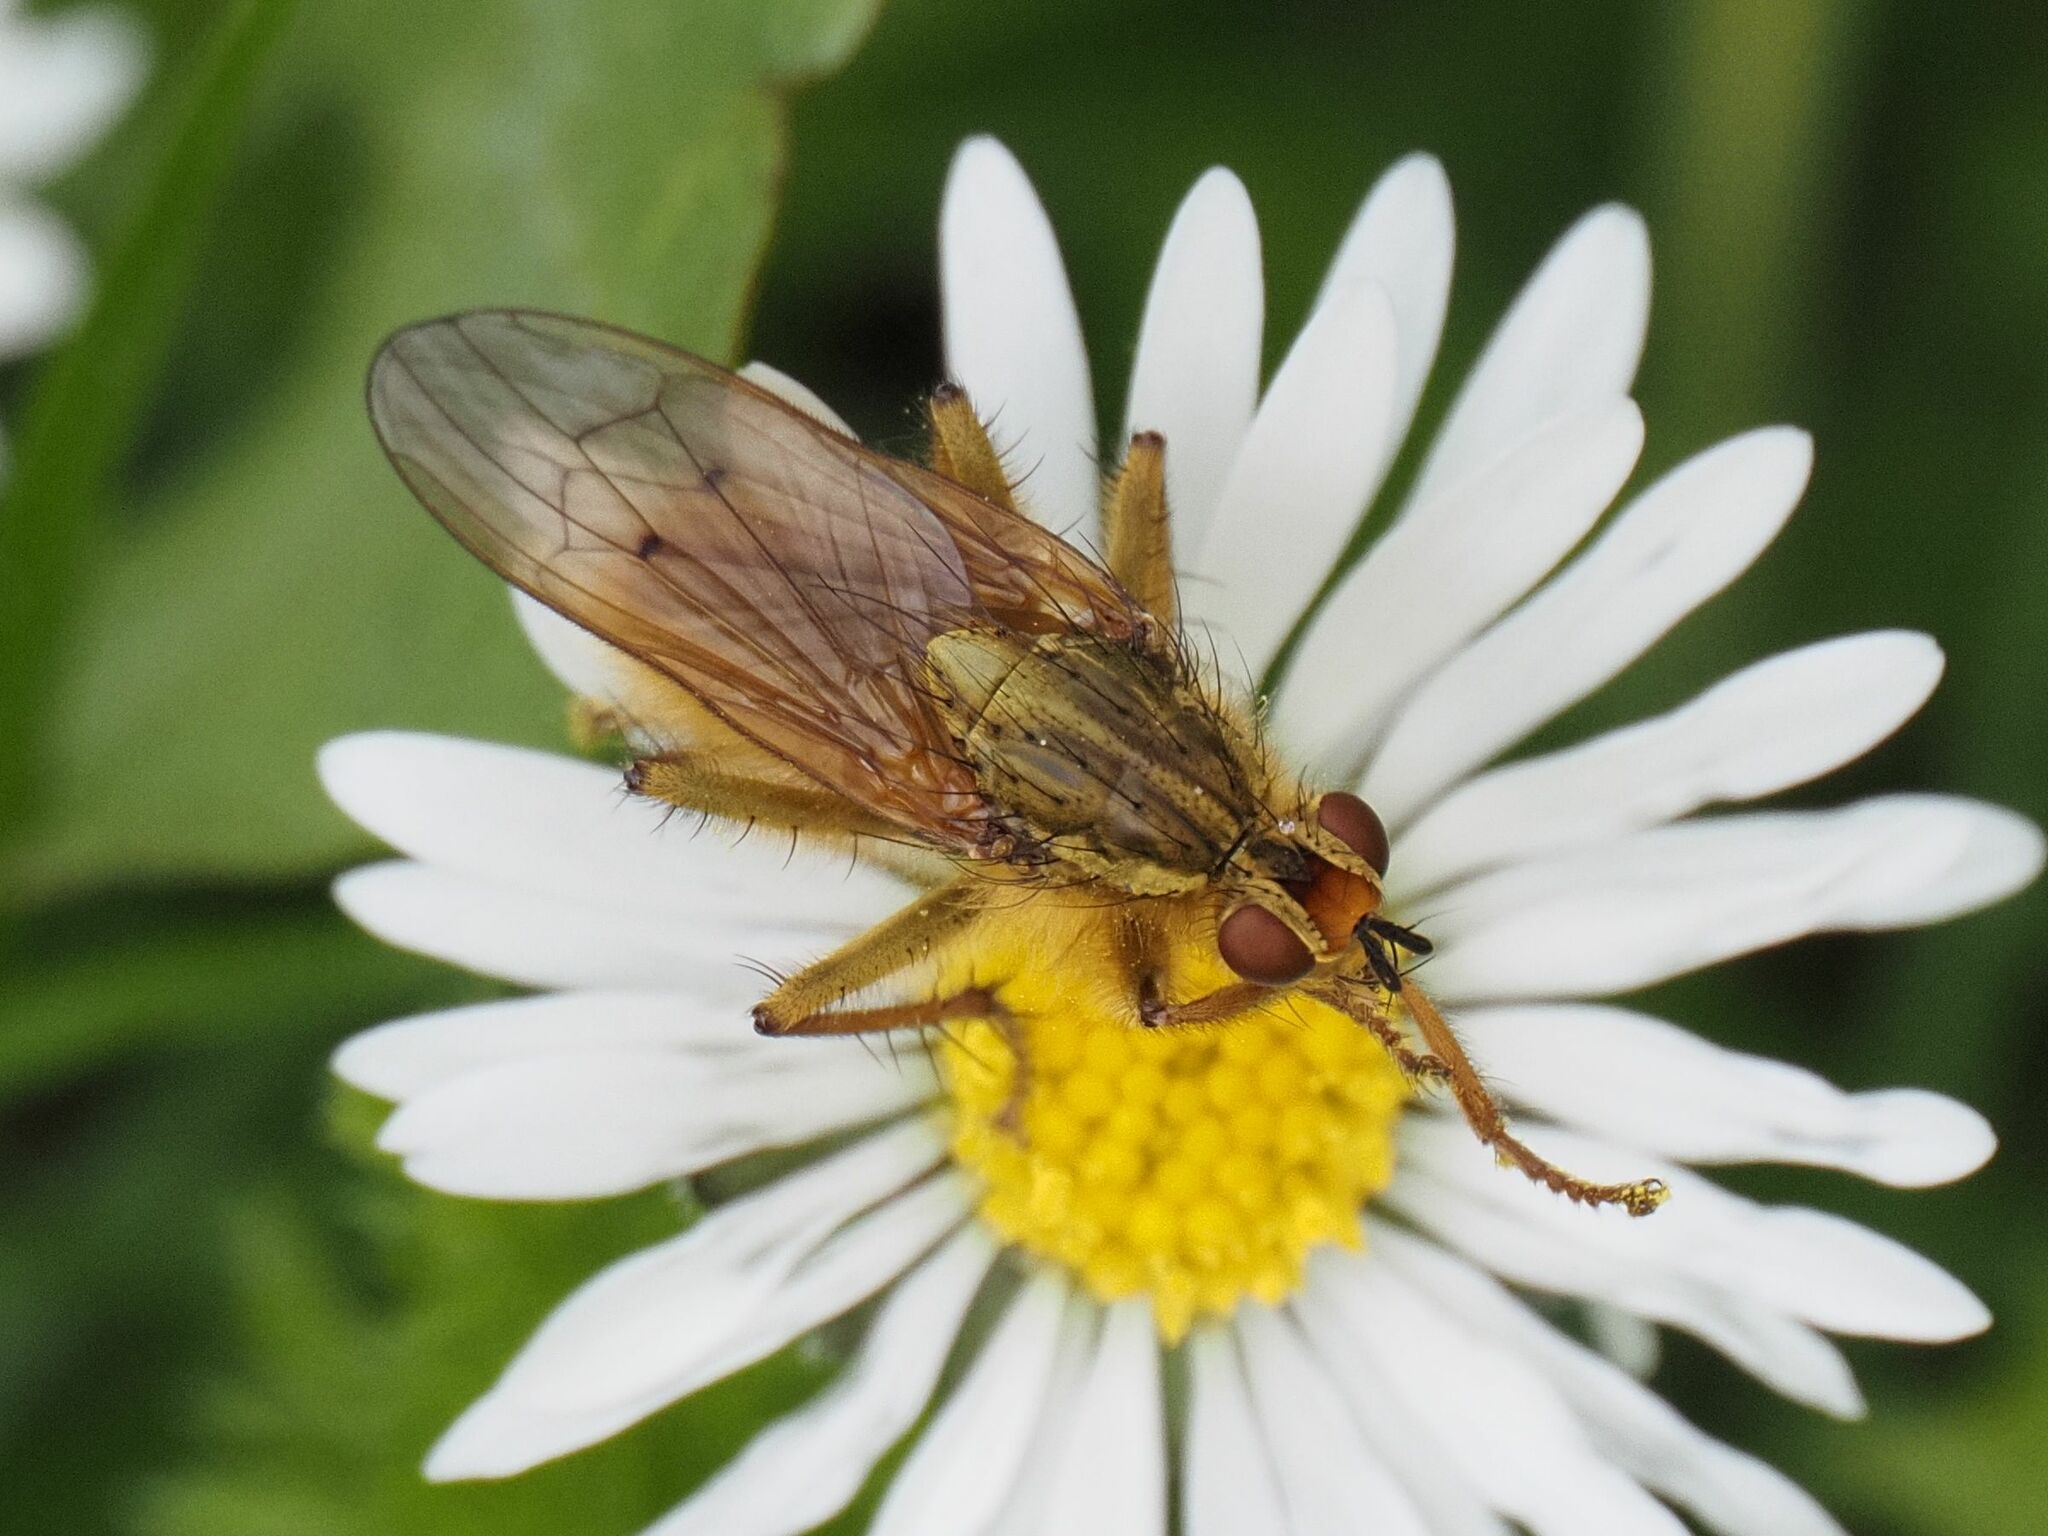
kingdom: Animalia
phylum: Arthropoda
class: Insecta
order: Diptera
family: Scathophagidae
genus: Scathophaga
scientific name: Scathophaga stercoraria
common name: Yellow dung fly
